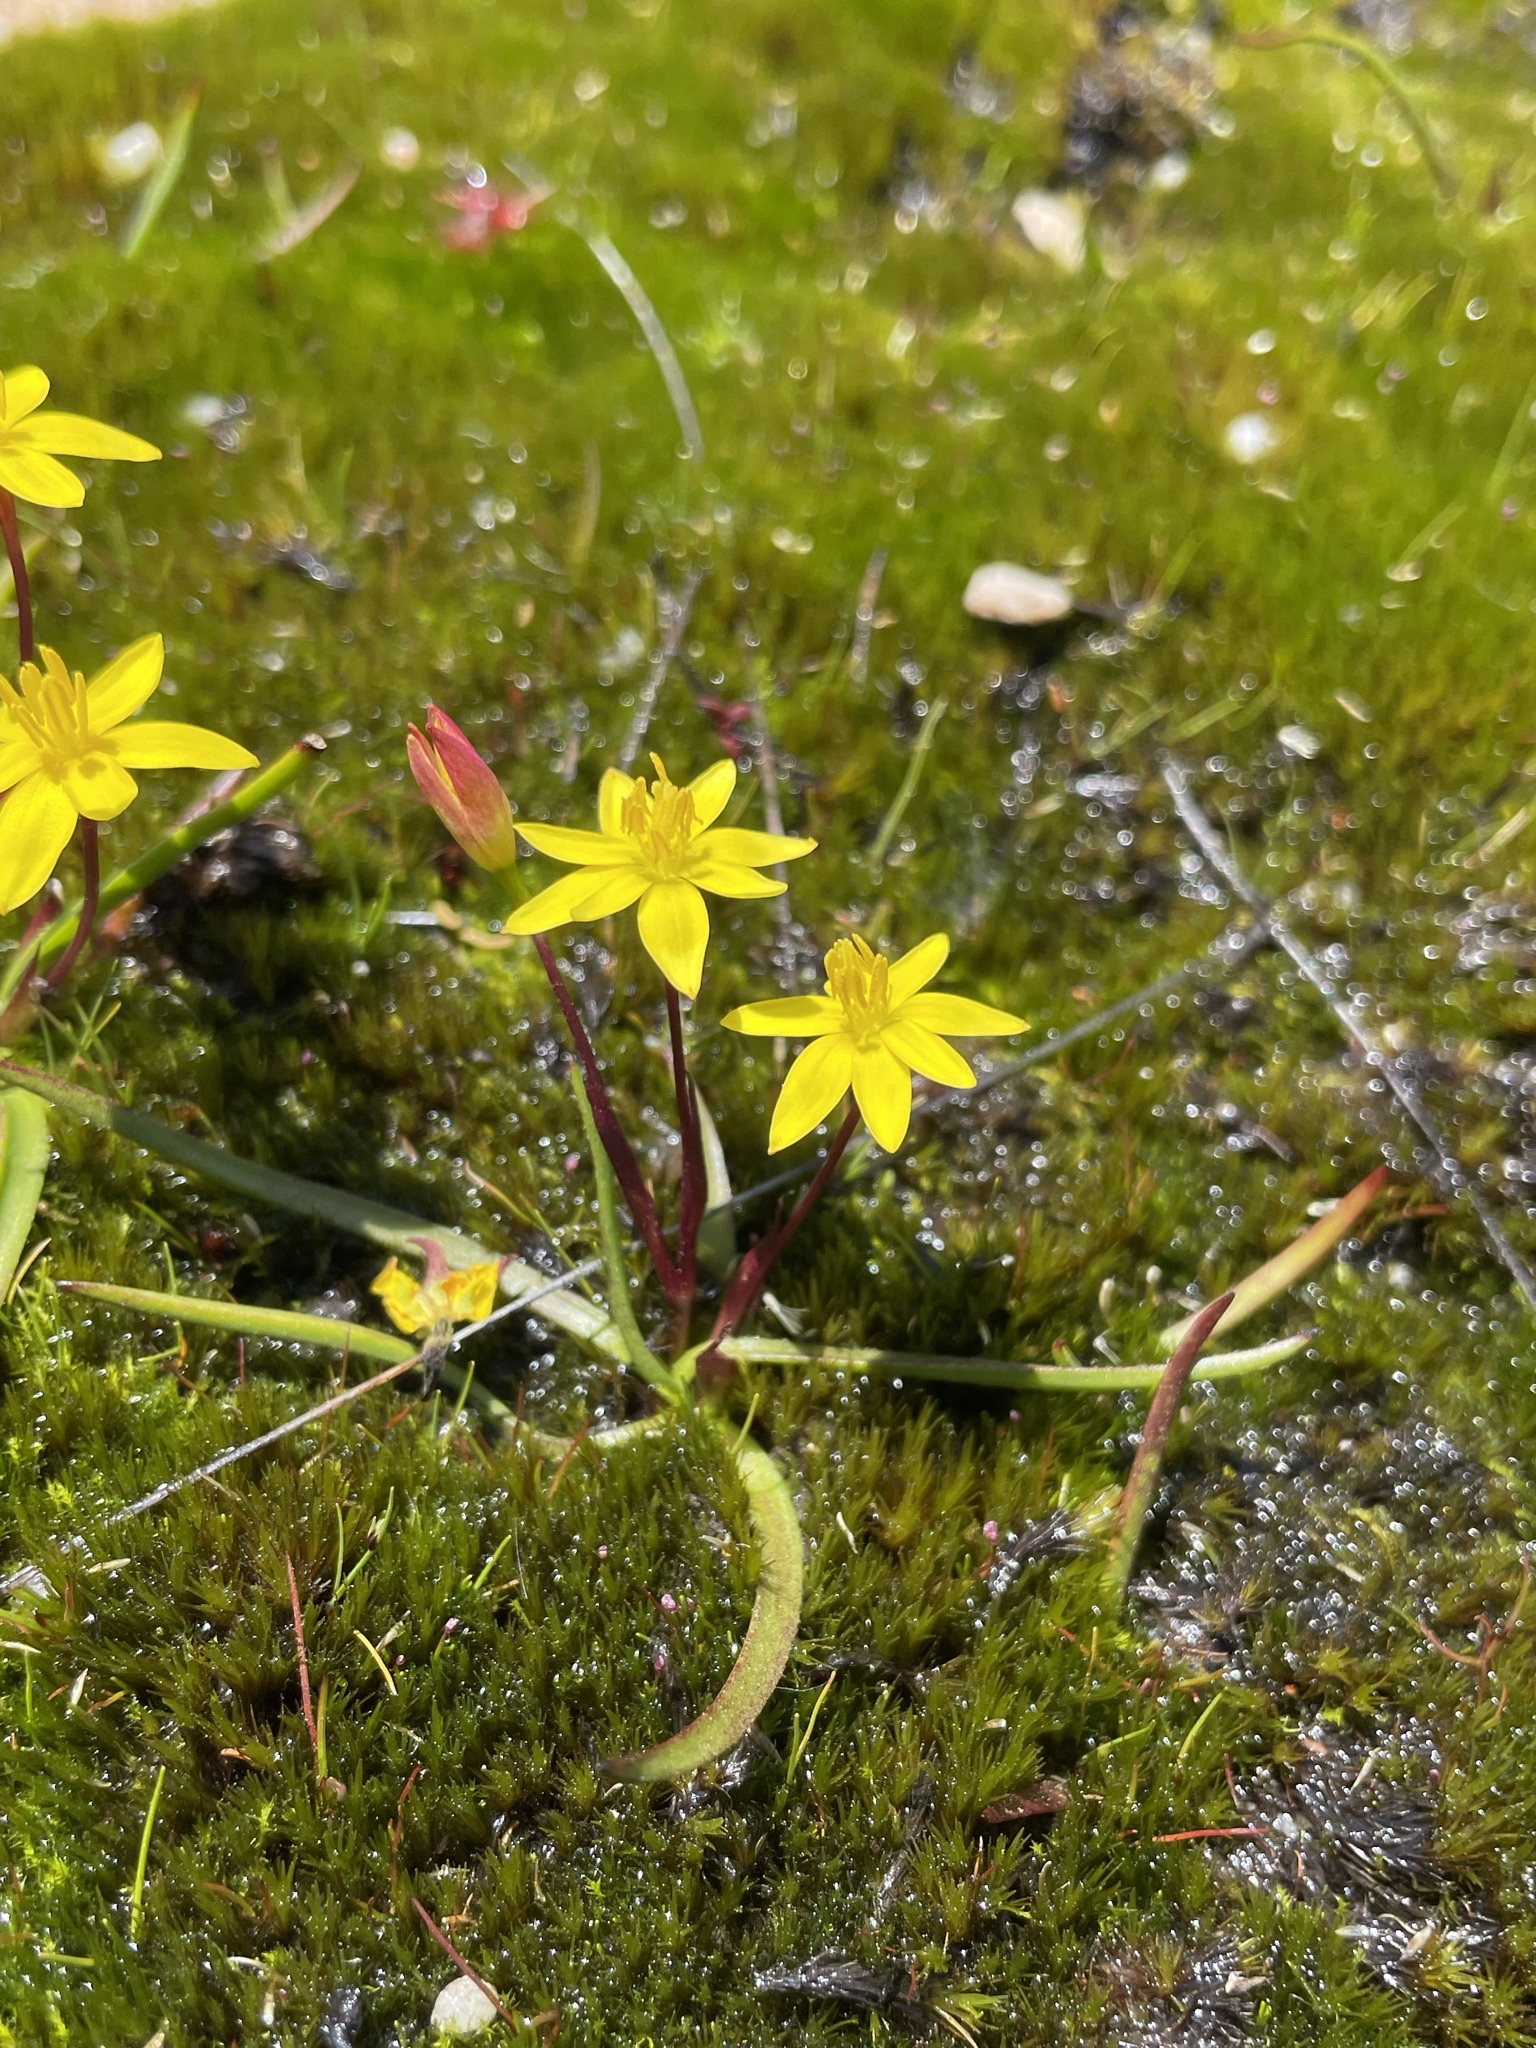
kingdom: Plantae
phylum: Tracheophyta
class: Liliopsida
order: Asparagales
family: Hypoxidaceae
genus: Pauridia
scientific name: Pauridia monticola
